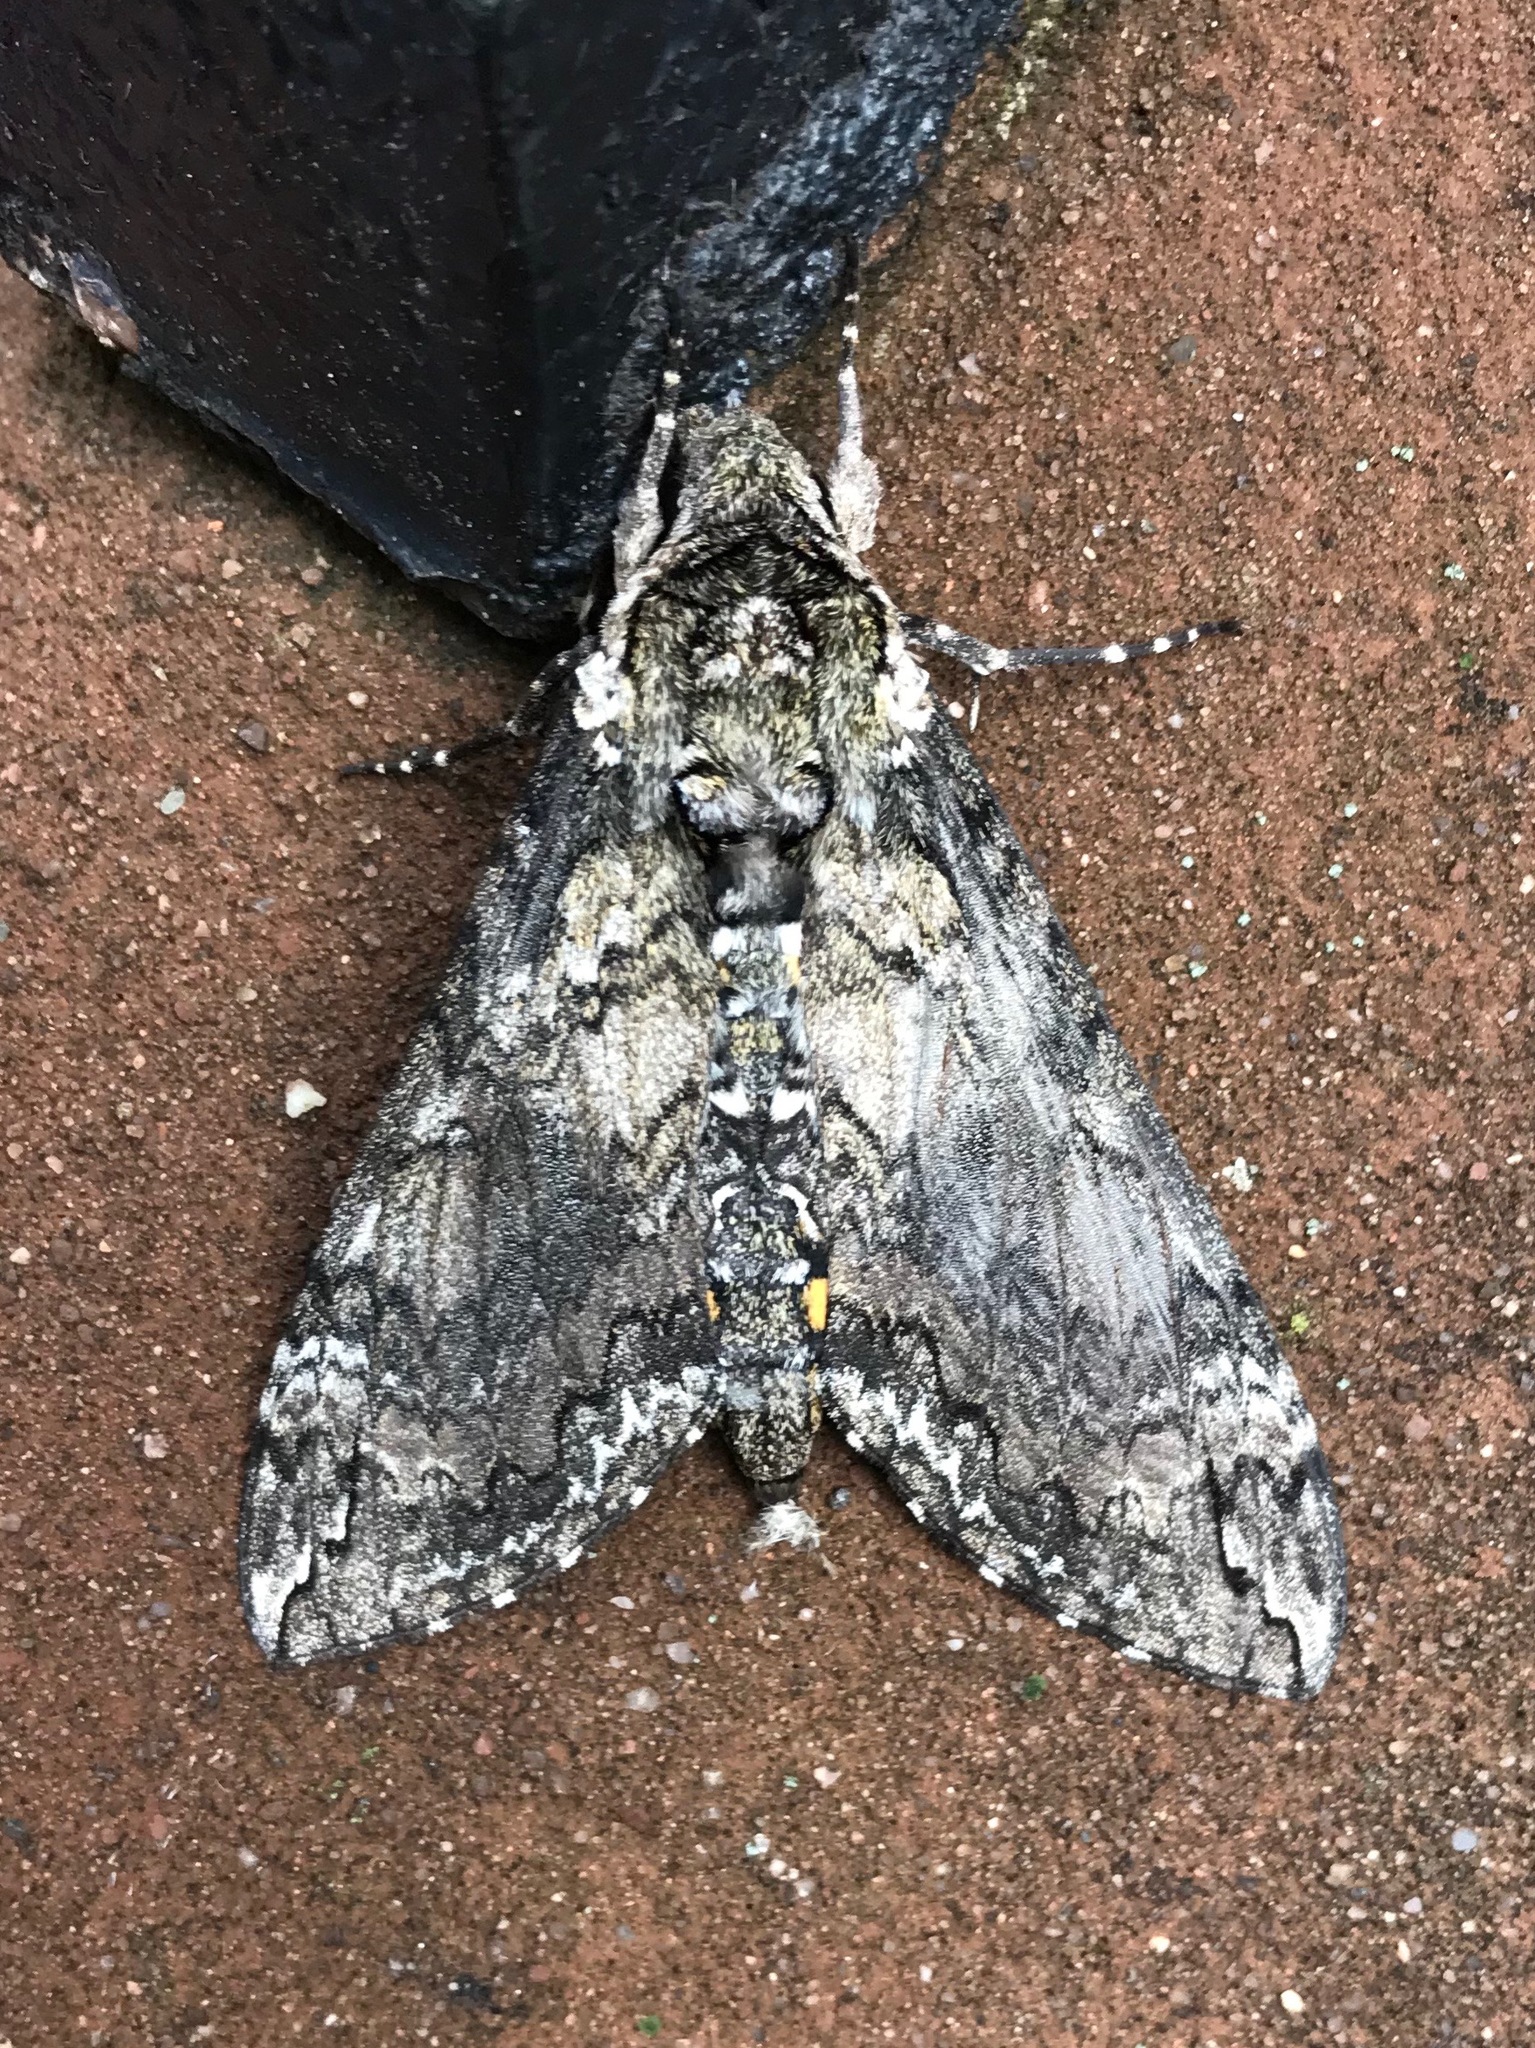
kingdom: Animalia
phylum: Arthropoda
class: Insecta
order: Lepidoptera
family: Sphingidae
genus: Manduca
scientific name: Manduca sexta
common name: Carolina sphinx
